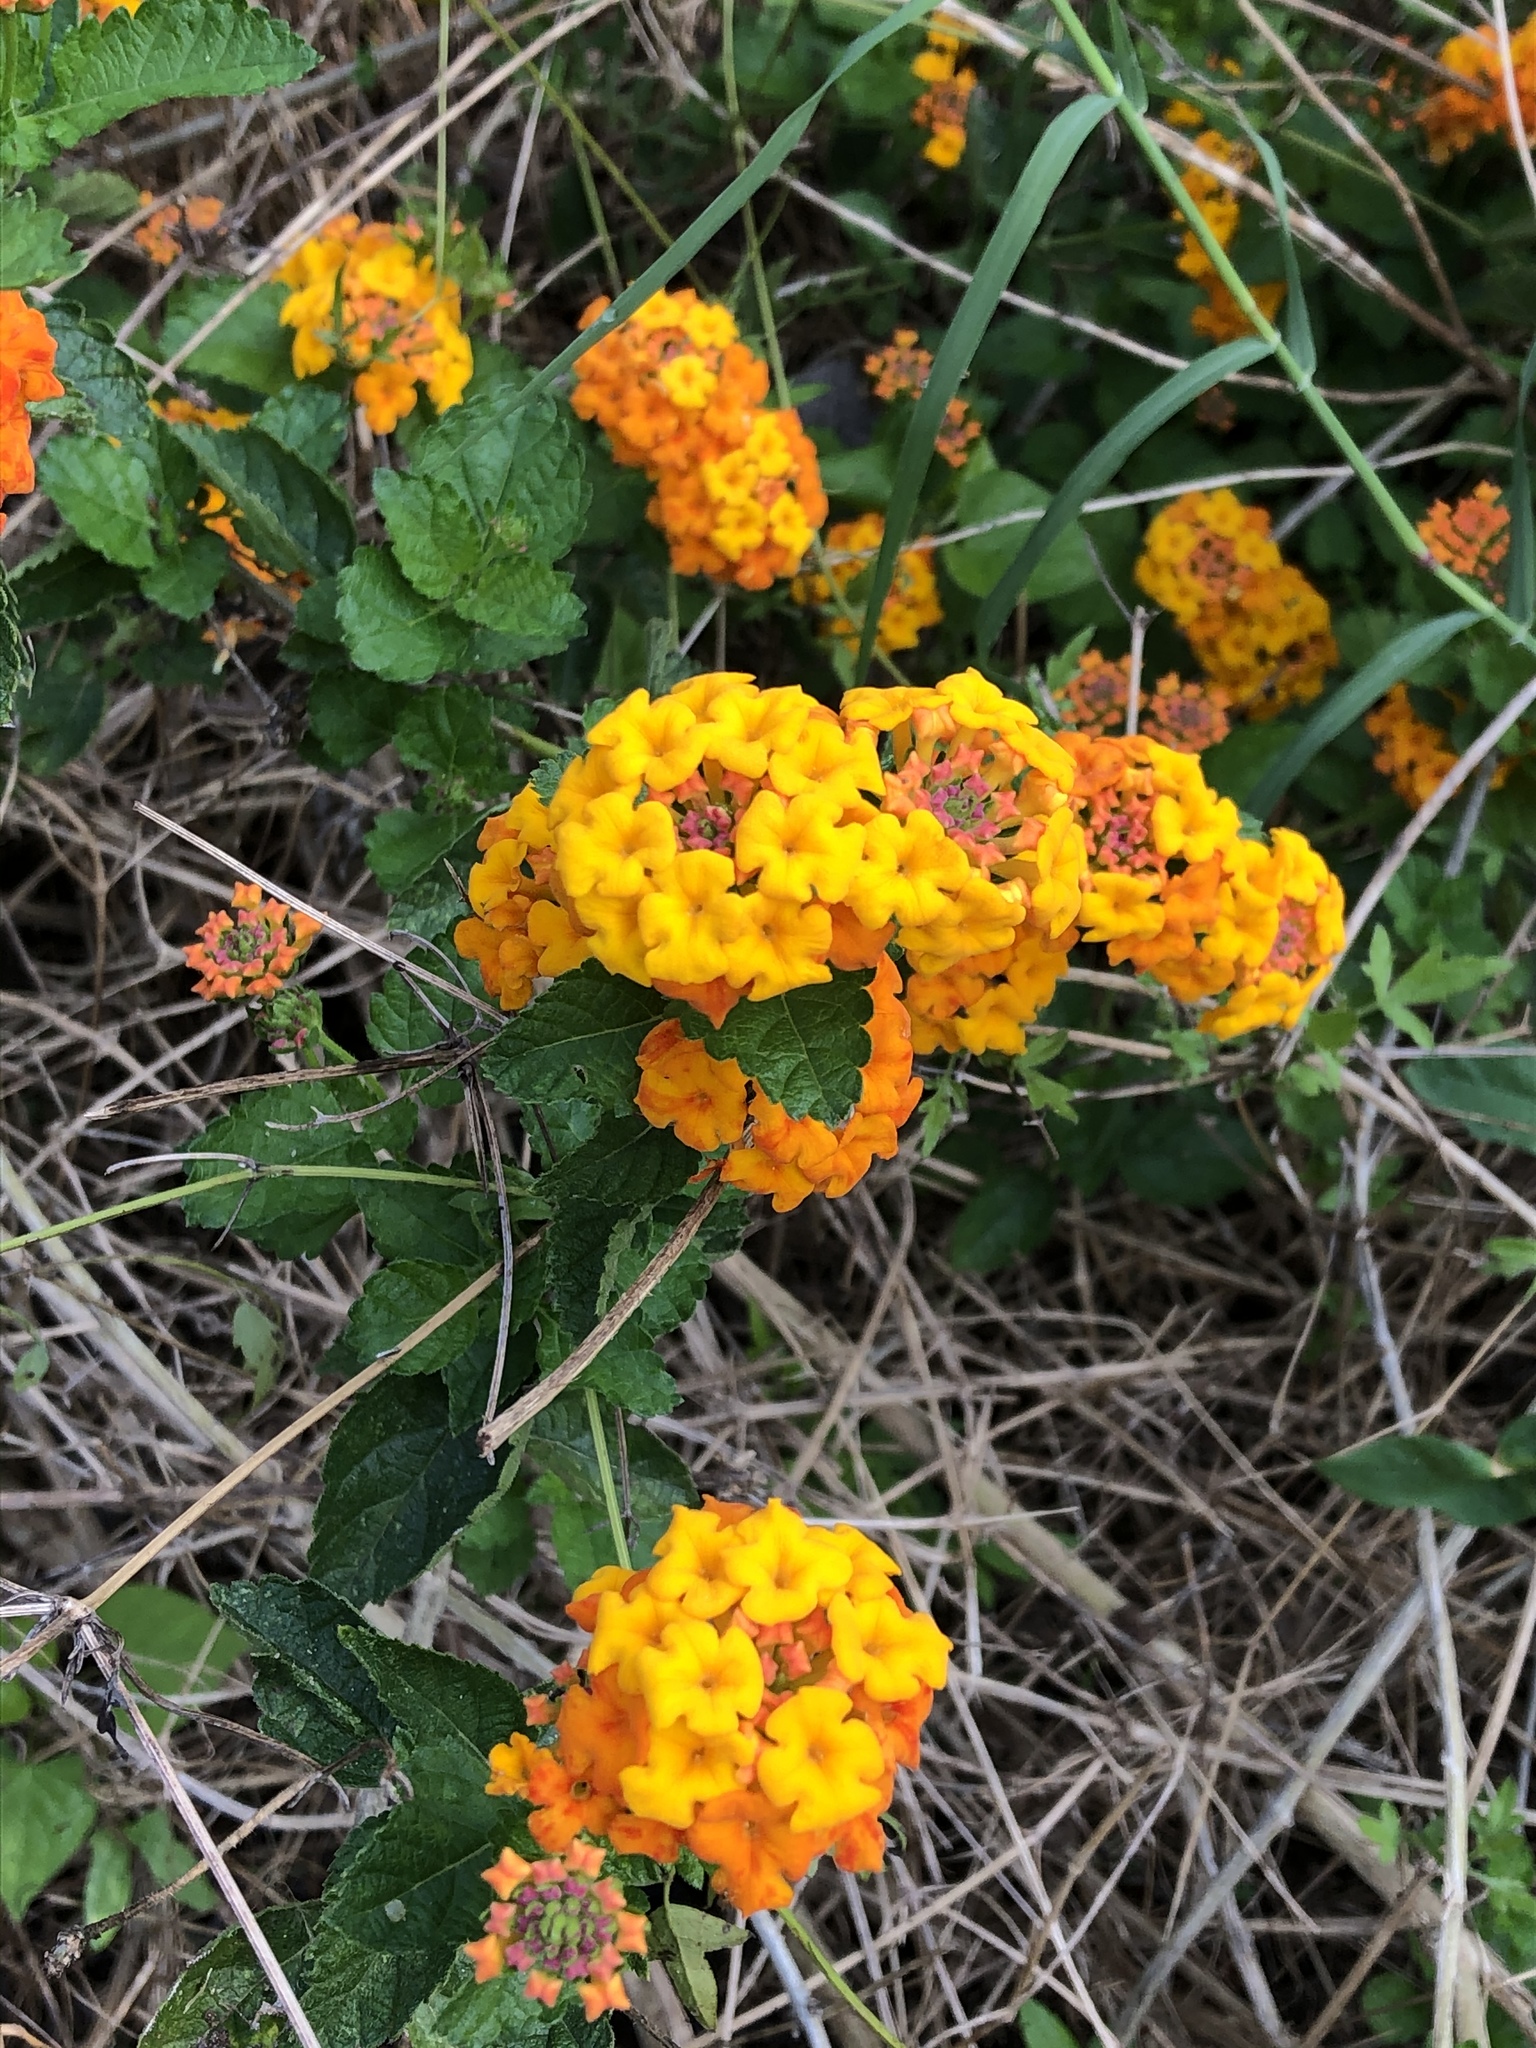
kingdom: Plantae
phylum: Tracheophyta
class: Magnoliopsida
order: Lamiales
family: Verbenaceae
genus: Lantana
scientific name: Lantana urticoides
